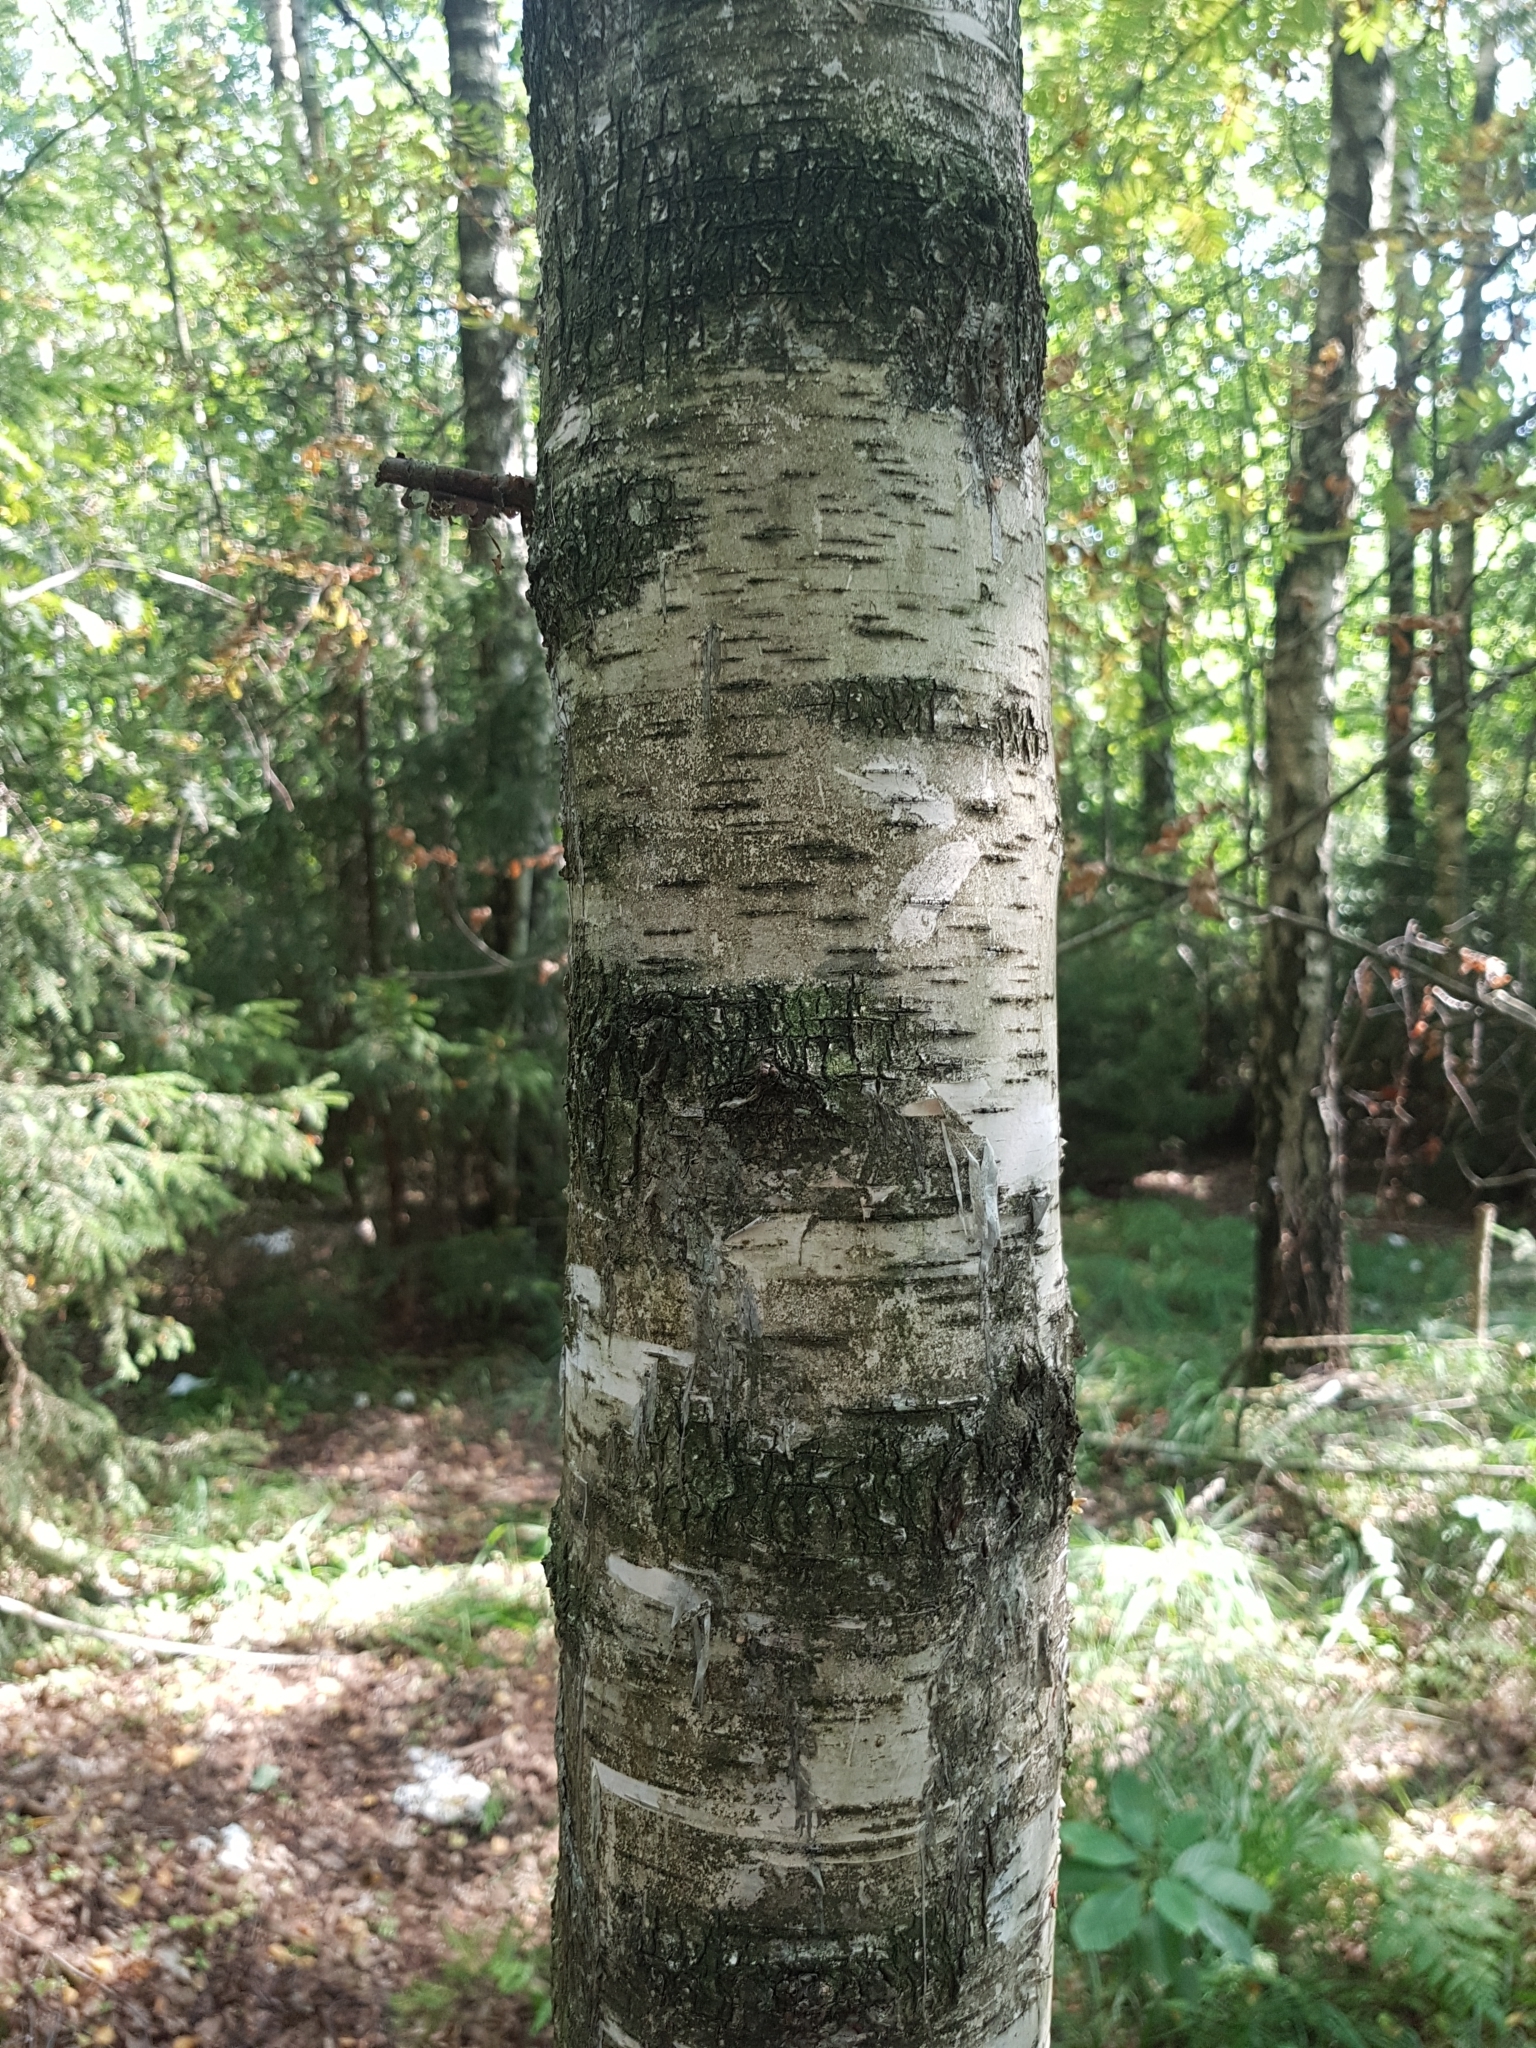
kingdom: Plantae
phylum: Tracheophyta
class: Magnoliopsida
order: Fagales
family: Betulaceae
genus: Betula
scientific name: Betula pubescens
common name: Downy birch
